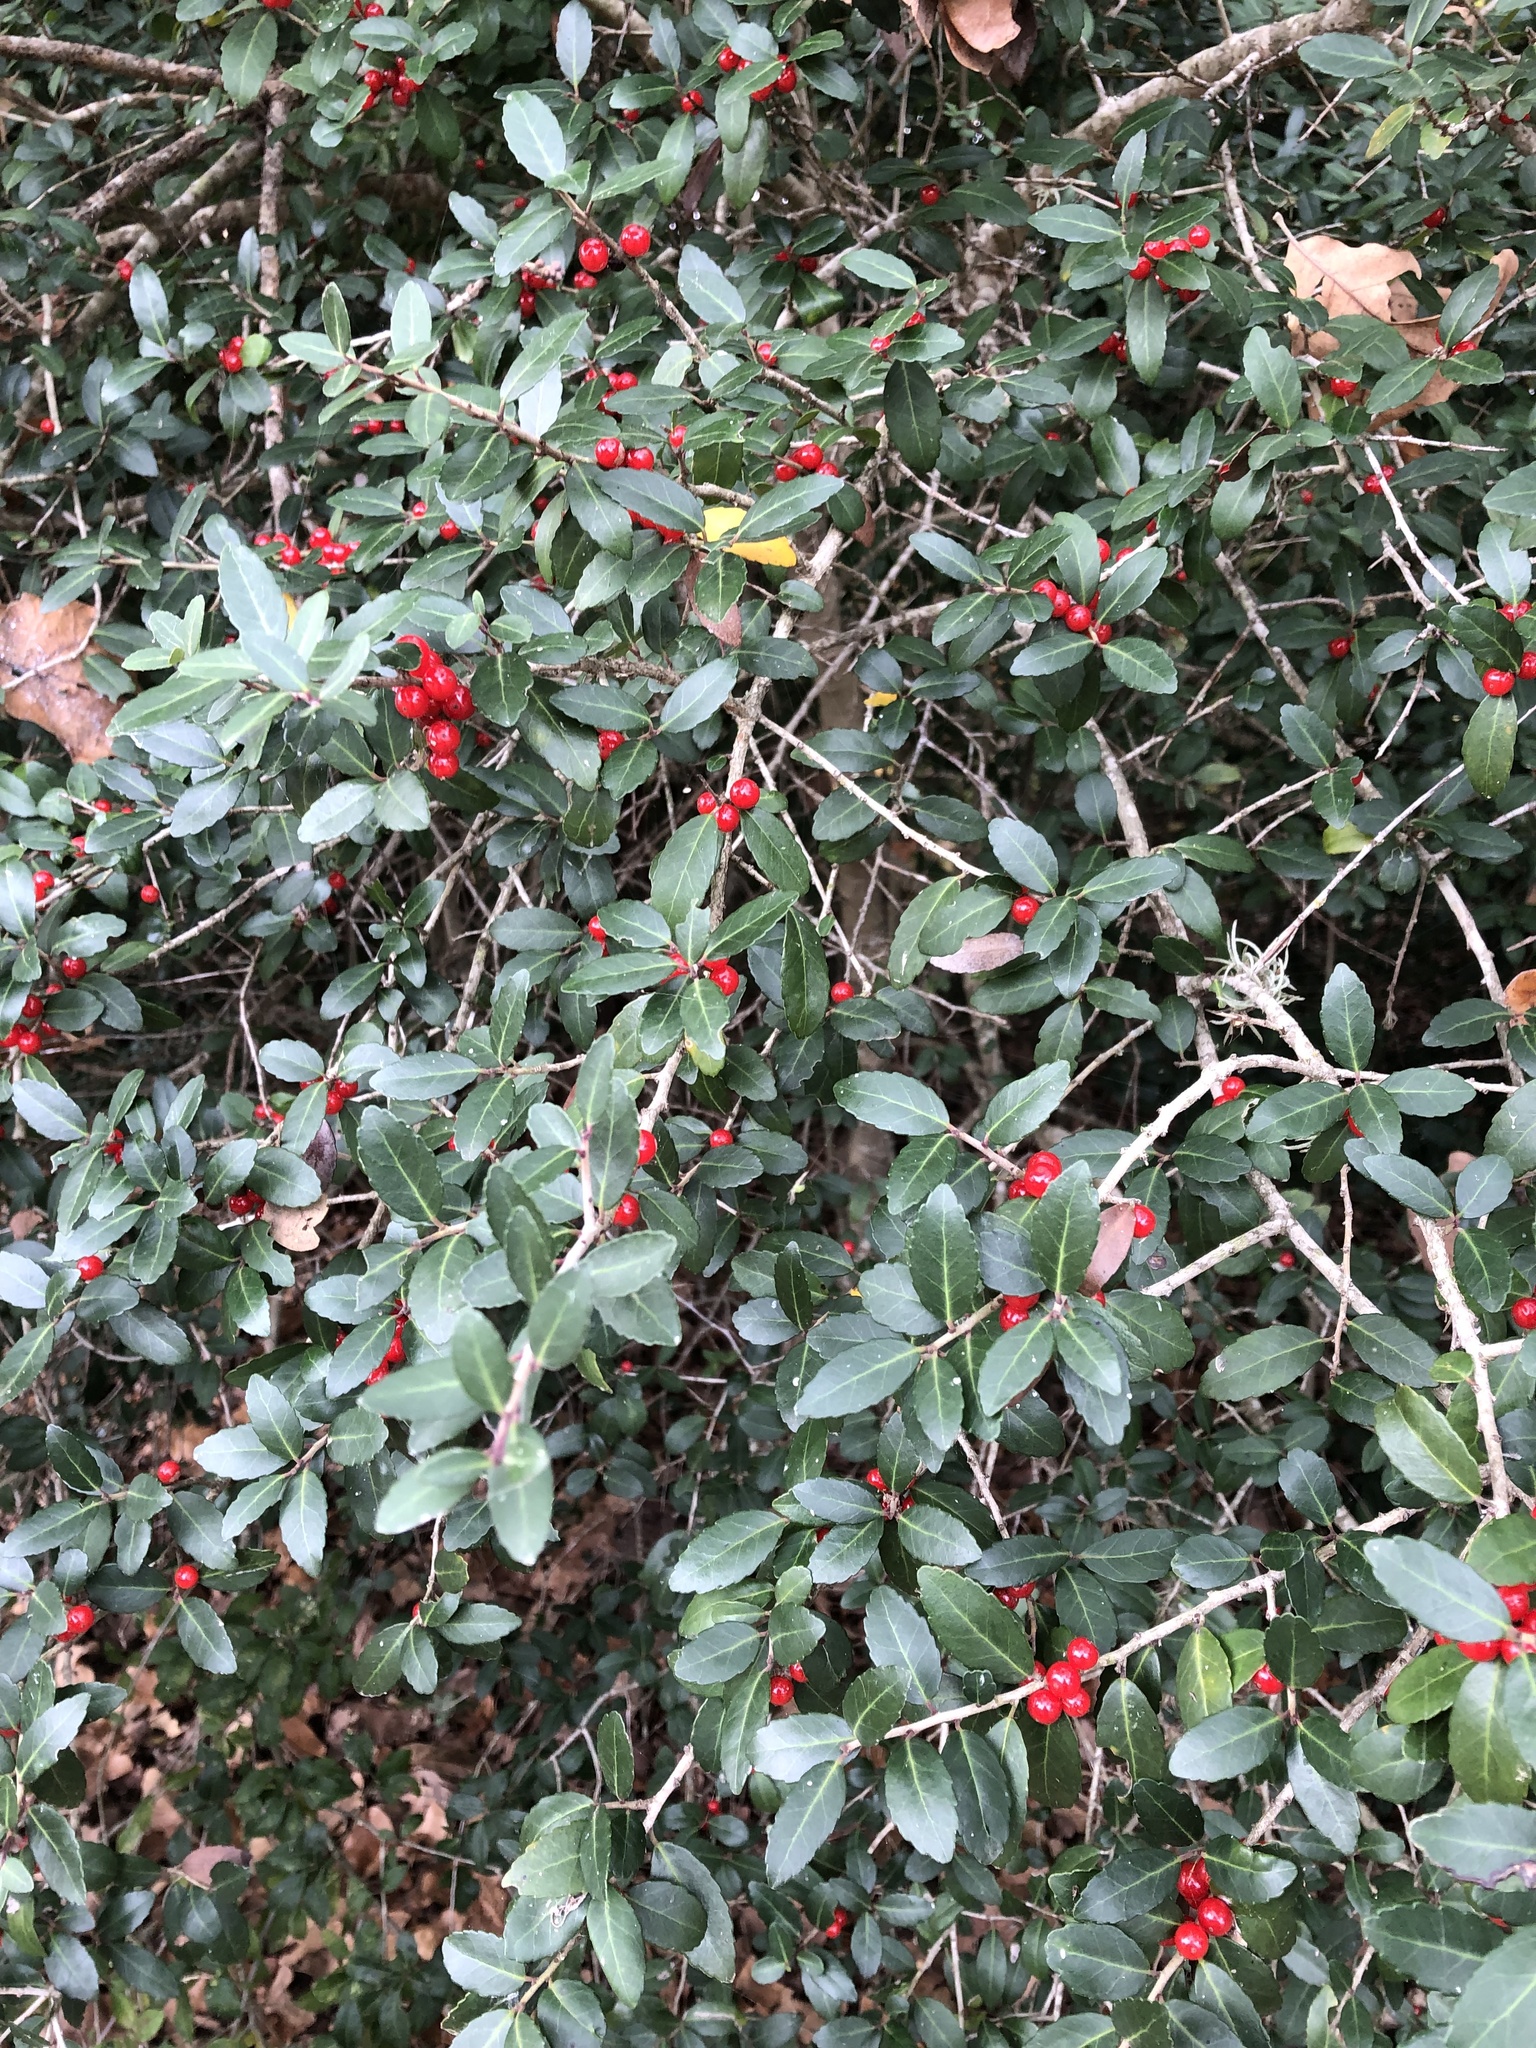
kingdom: Plantae
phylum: Tracheophyta
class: Magnoliopsida
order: Aquifoliales
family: Aquifoliaceae
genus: Ilex
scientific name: Ilex vomitoria
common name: Yaupon holly
